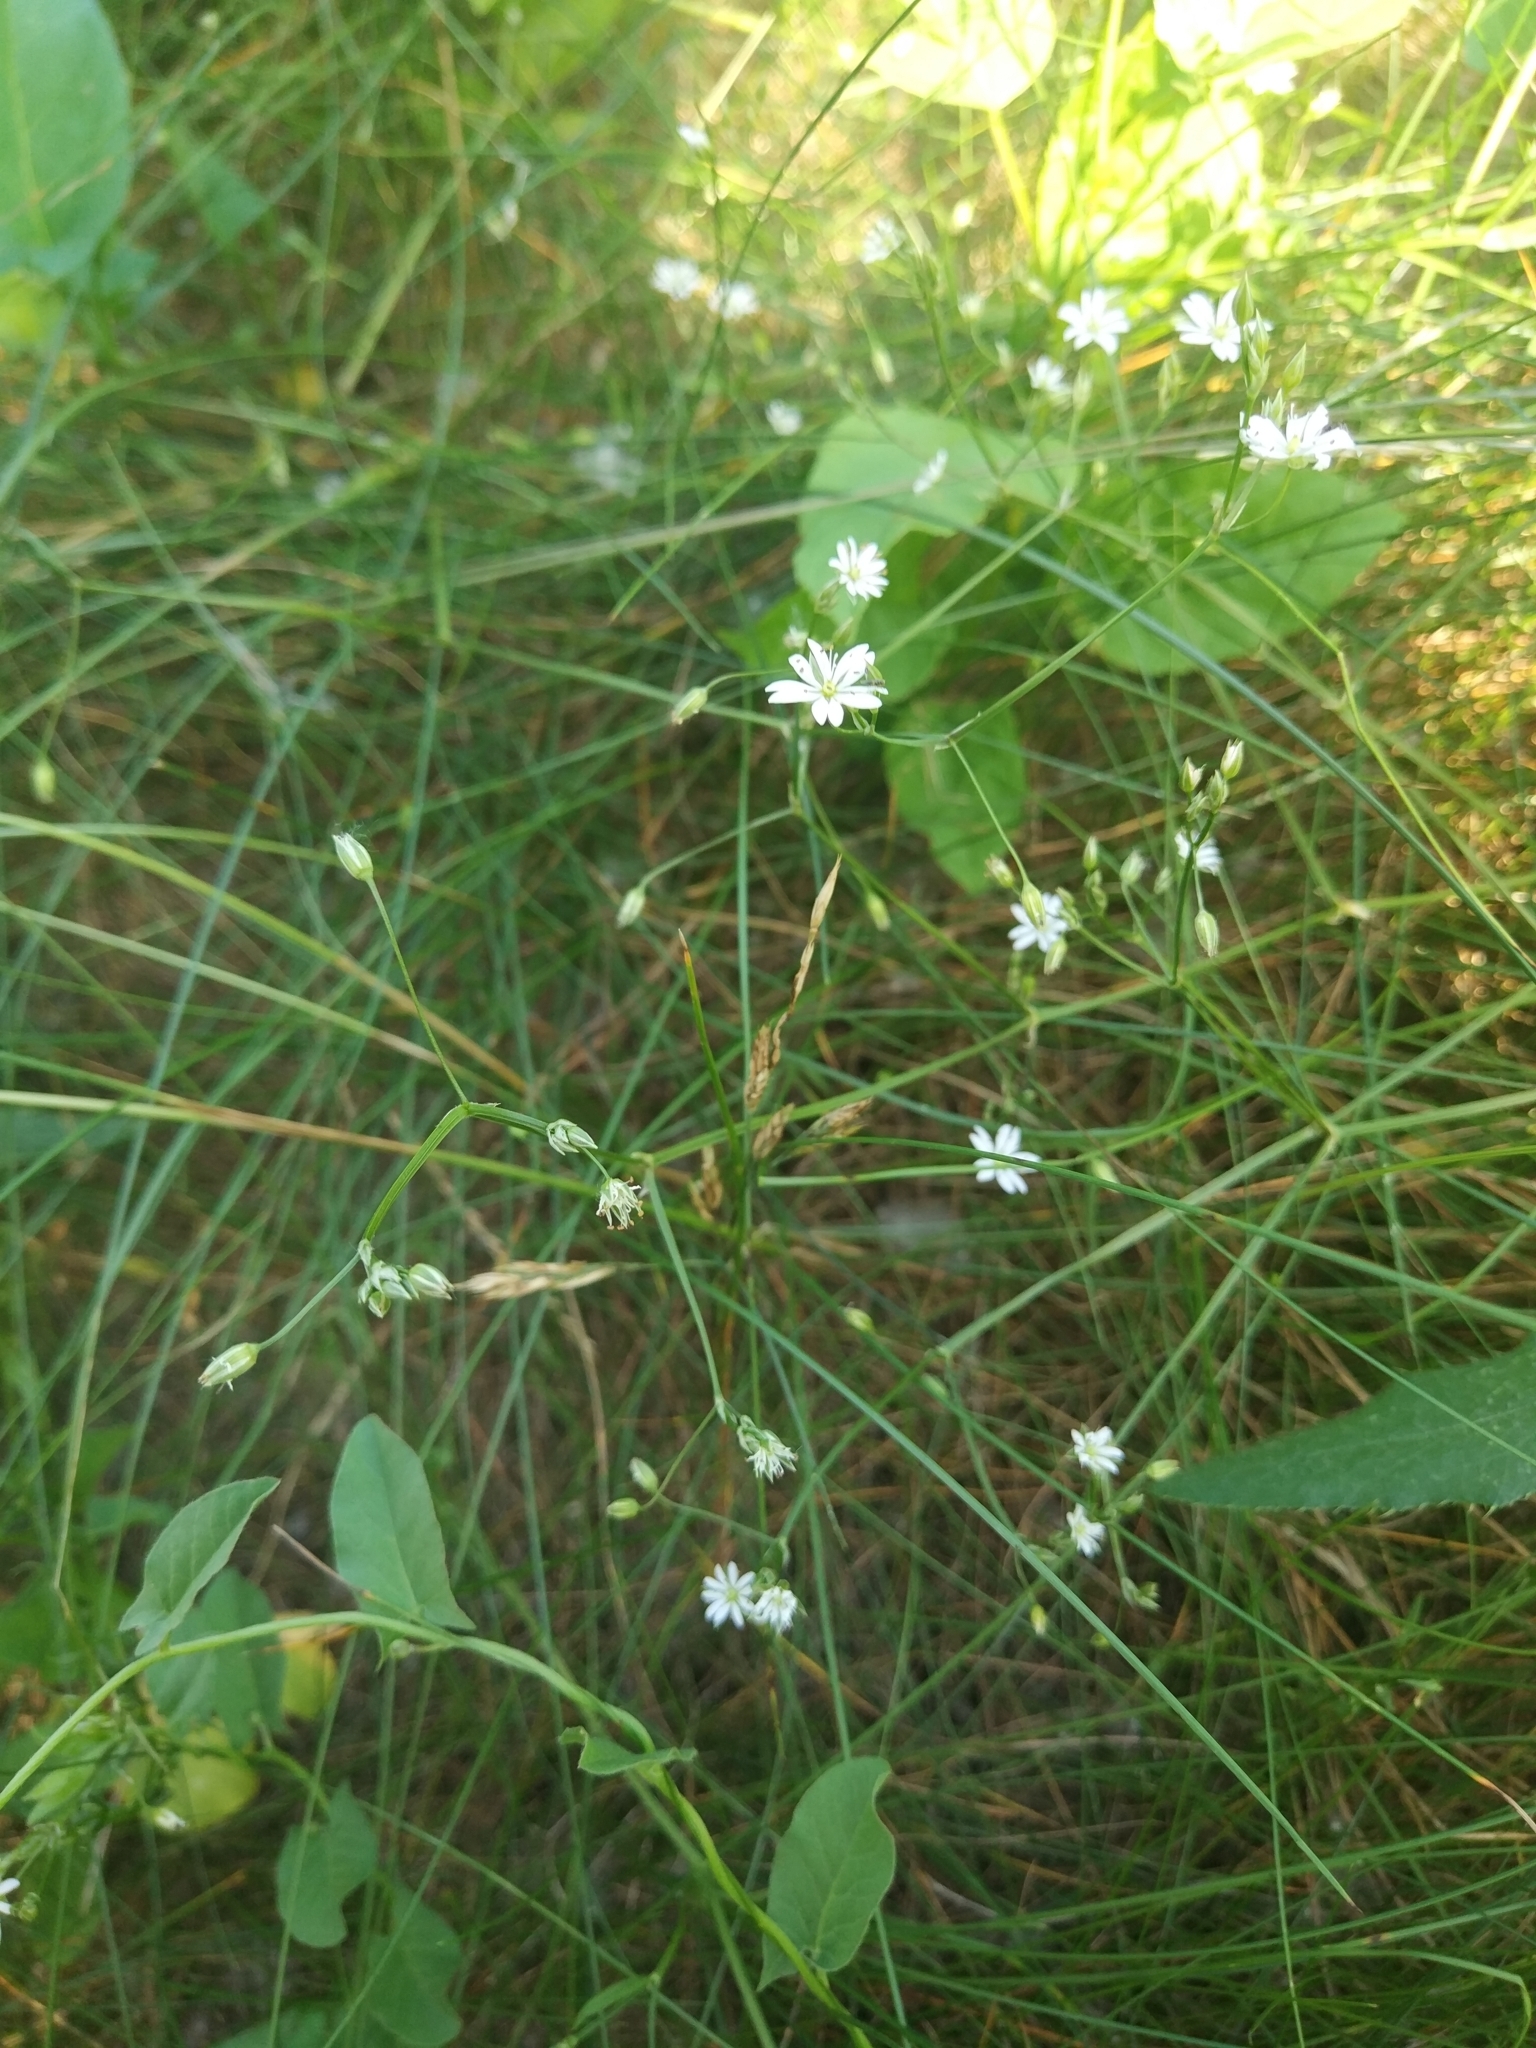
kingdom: Plantae
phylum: Tracheophyta
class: Magnoliopsida
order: Caryophyllales
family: Caryophyllaceae
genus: Stellaria
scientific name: Stellaria graminea
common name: Grass-like starwort
